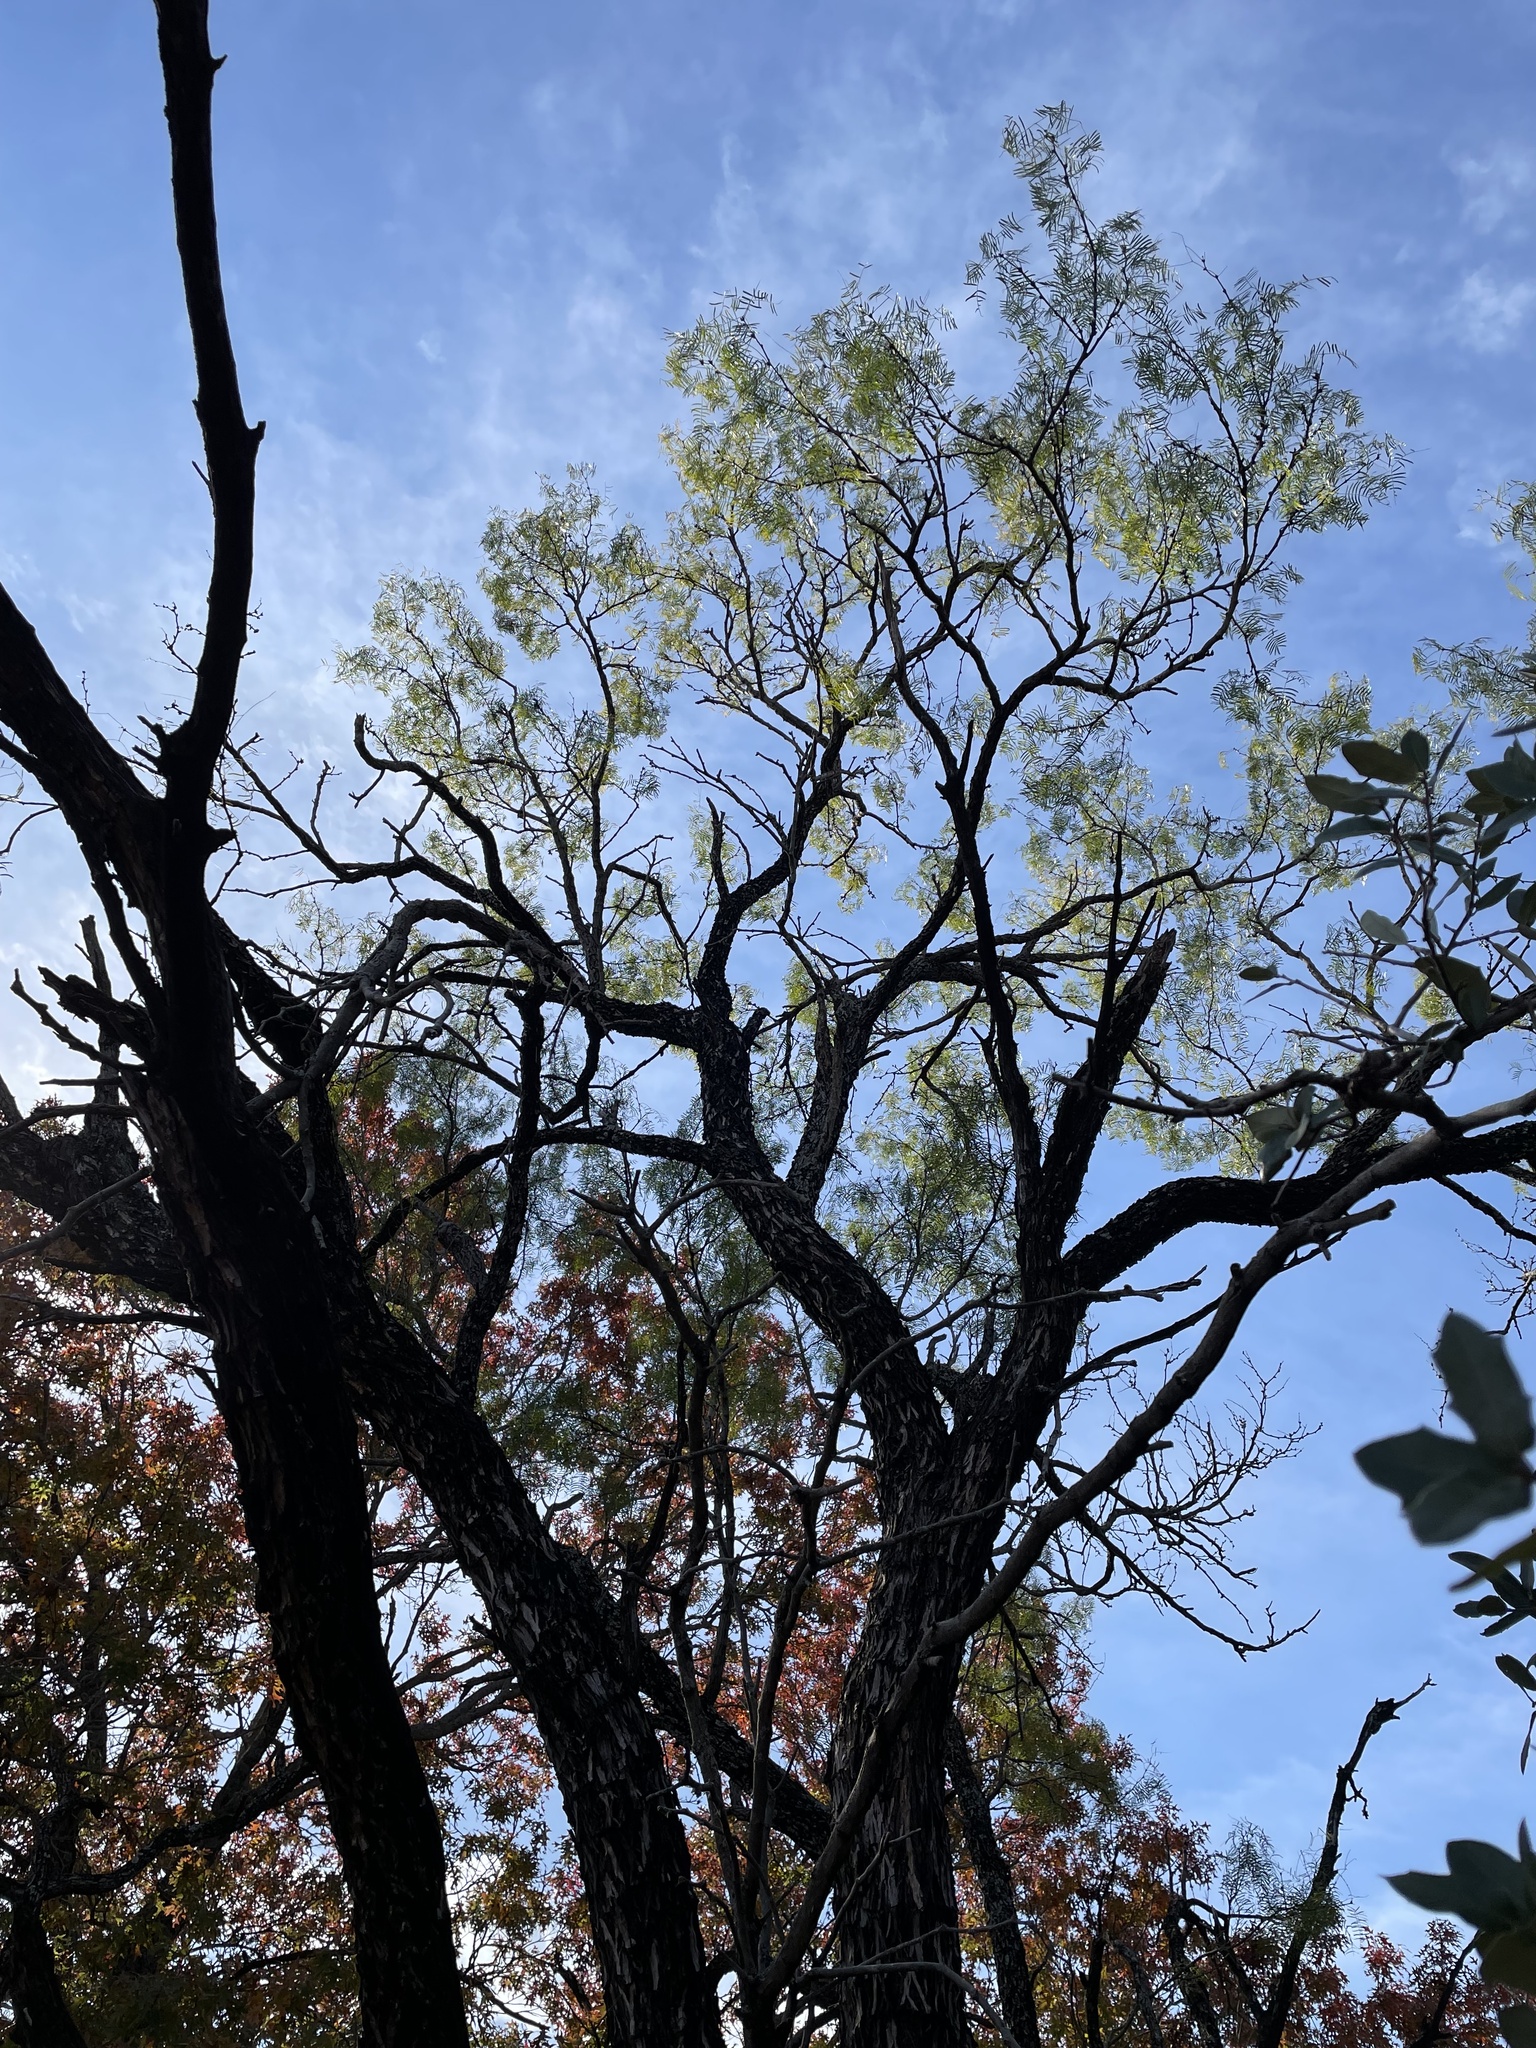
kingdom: Plantae
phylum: Tracheophyta
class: Magnoliopsida
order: Fabales
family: Fabaceae
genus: Prosopis
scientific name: Prosopis glandulosa
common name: Honey mesquite
